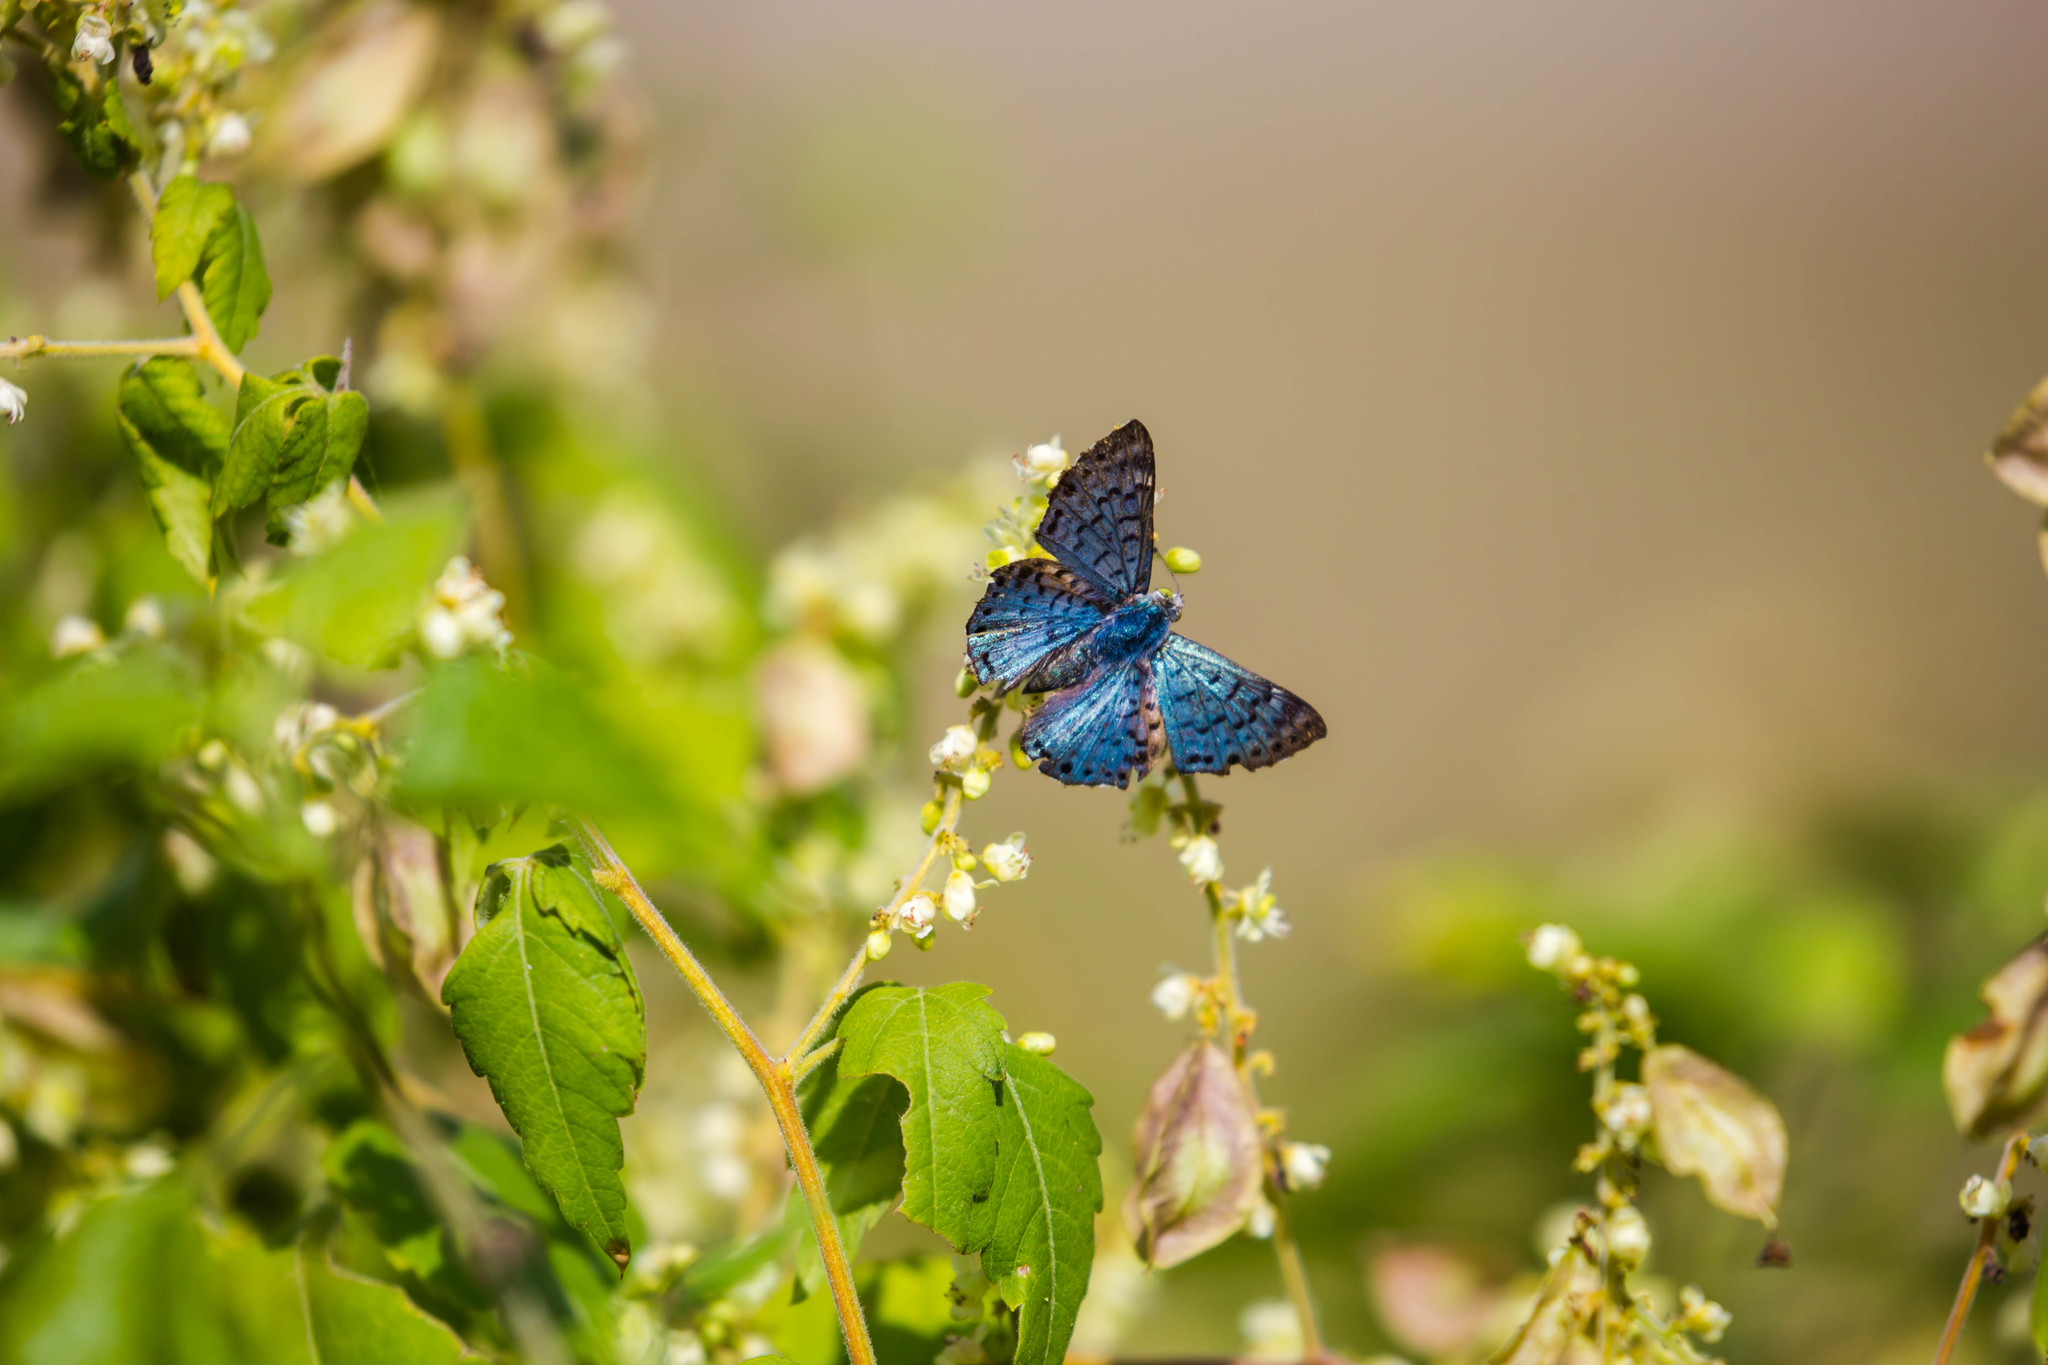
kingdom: Animalia
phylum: Arthropoda
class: Insecta
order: Lepidoptera
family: Riodinidae
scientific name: Riodinidae
